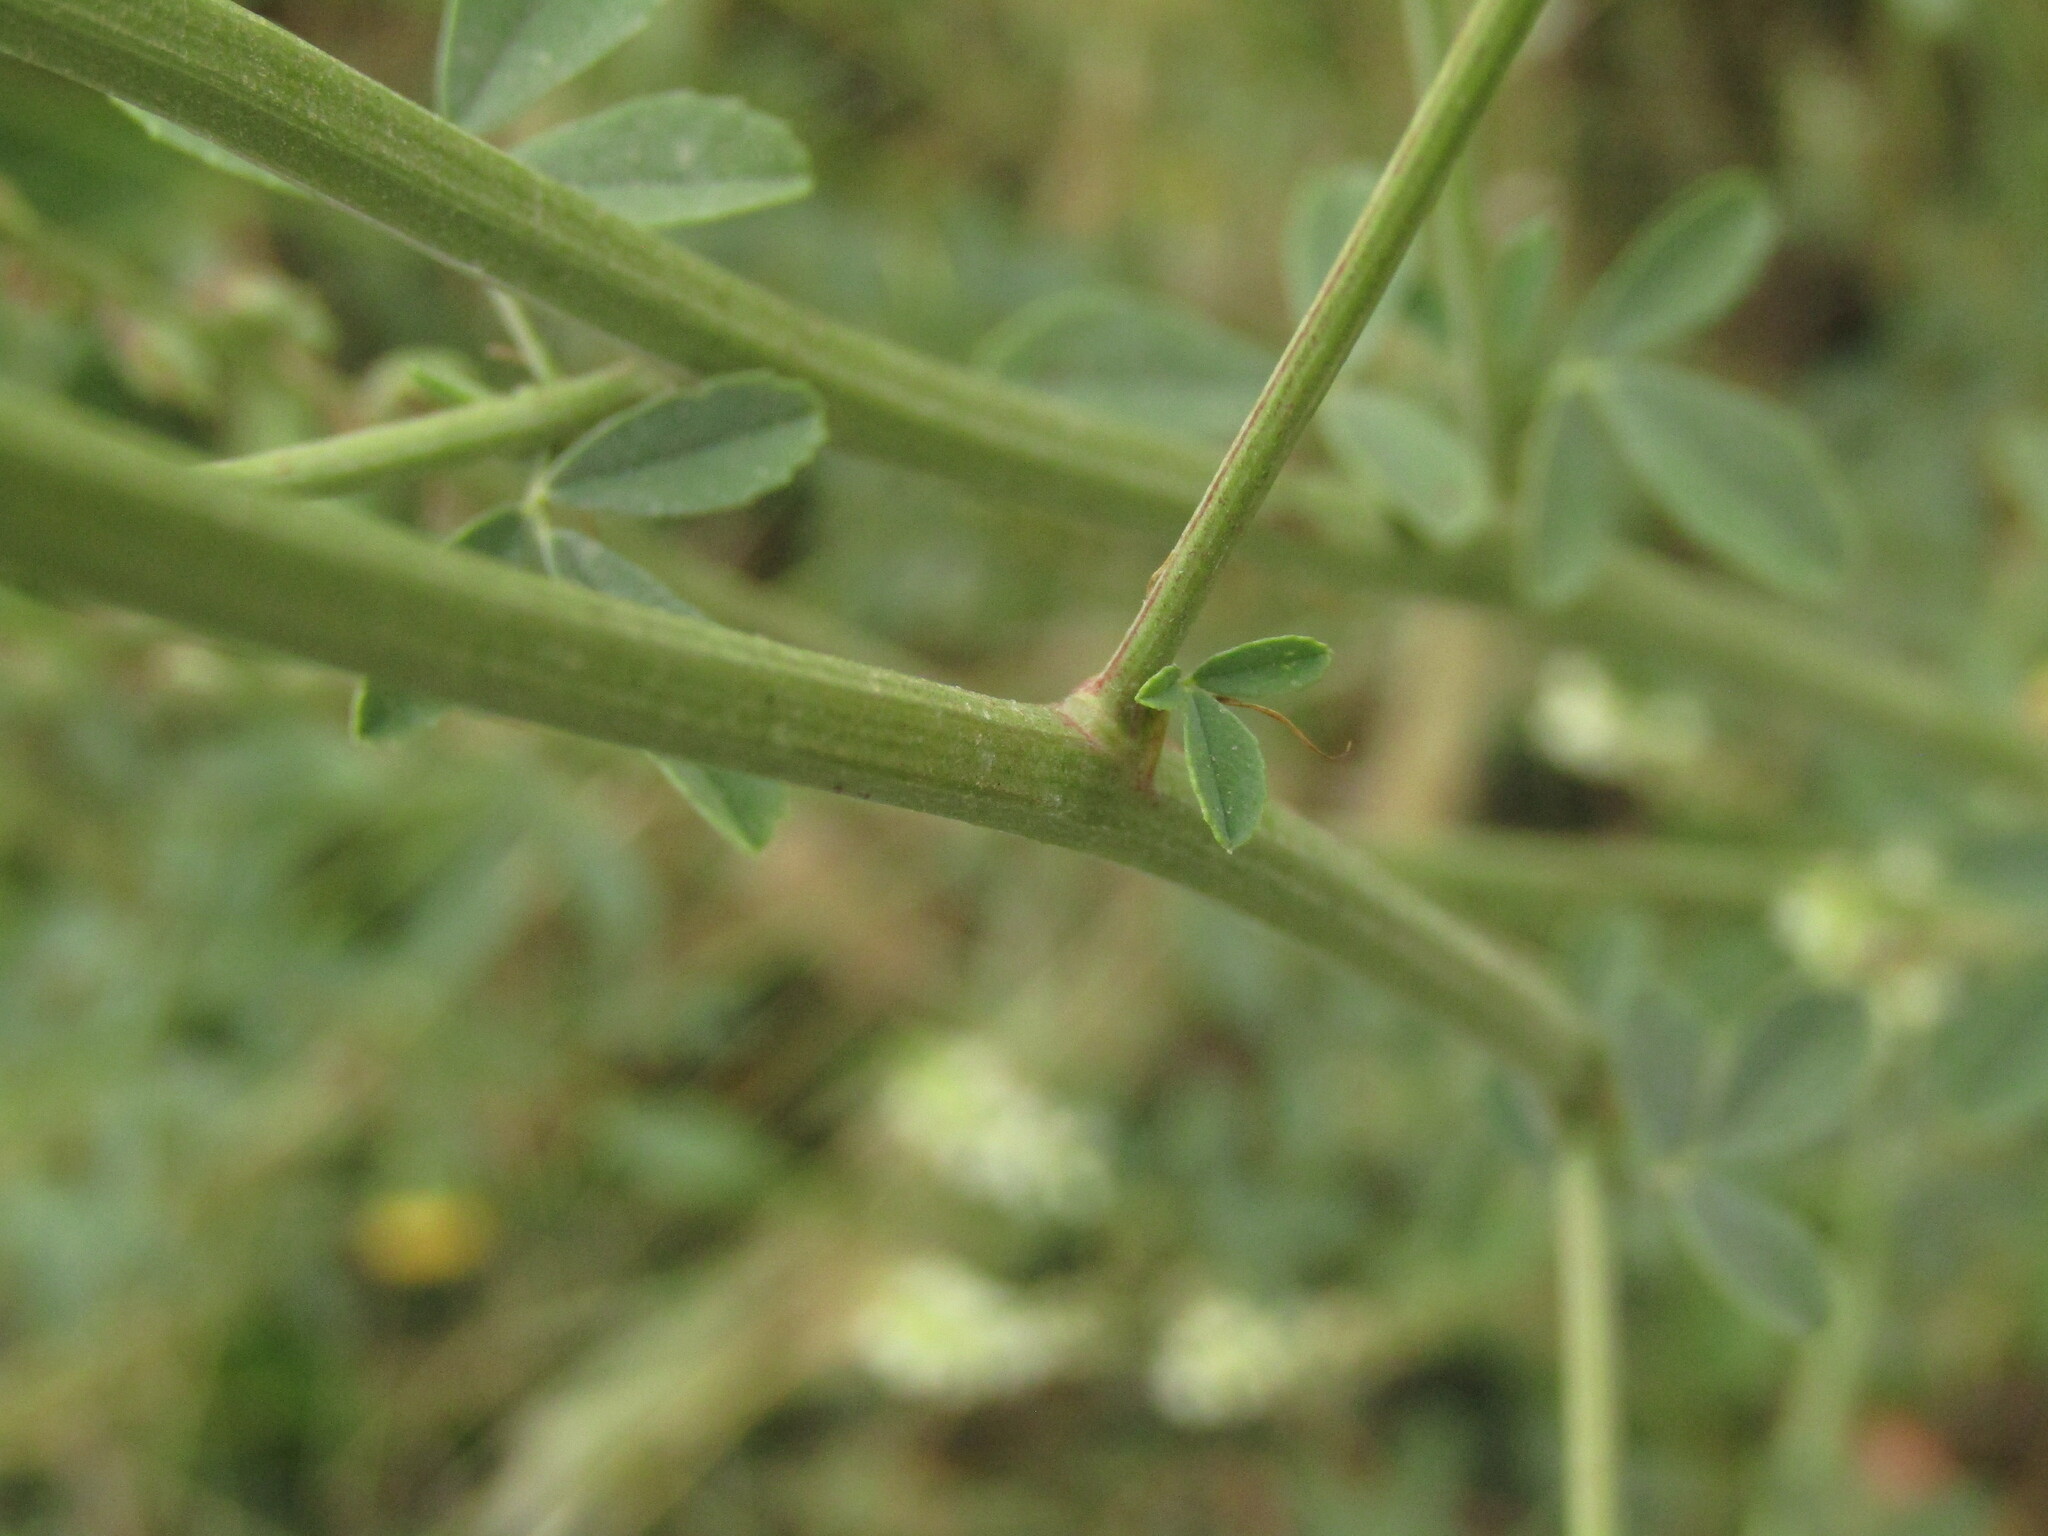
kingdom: Plantae
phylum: Tracheophyta
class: Magnoliopsida
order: Fabales
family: Fabaceae
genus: Melilotus
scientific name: Melilotus albus
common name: White melilot
